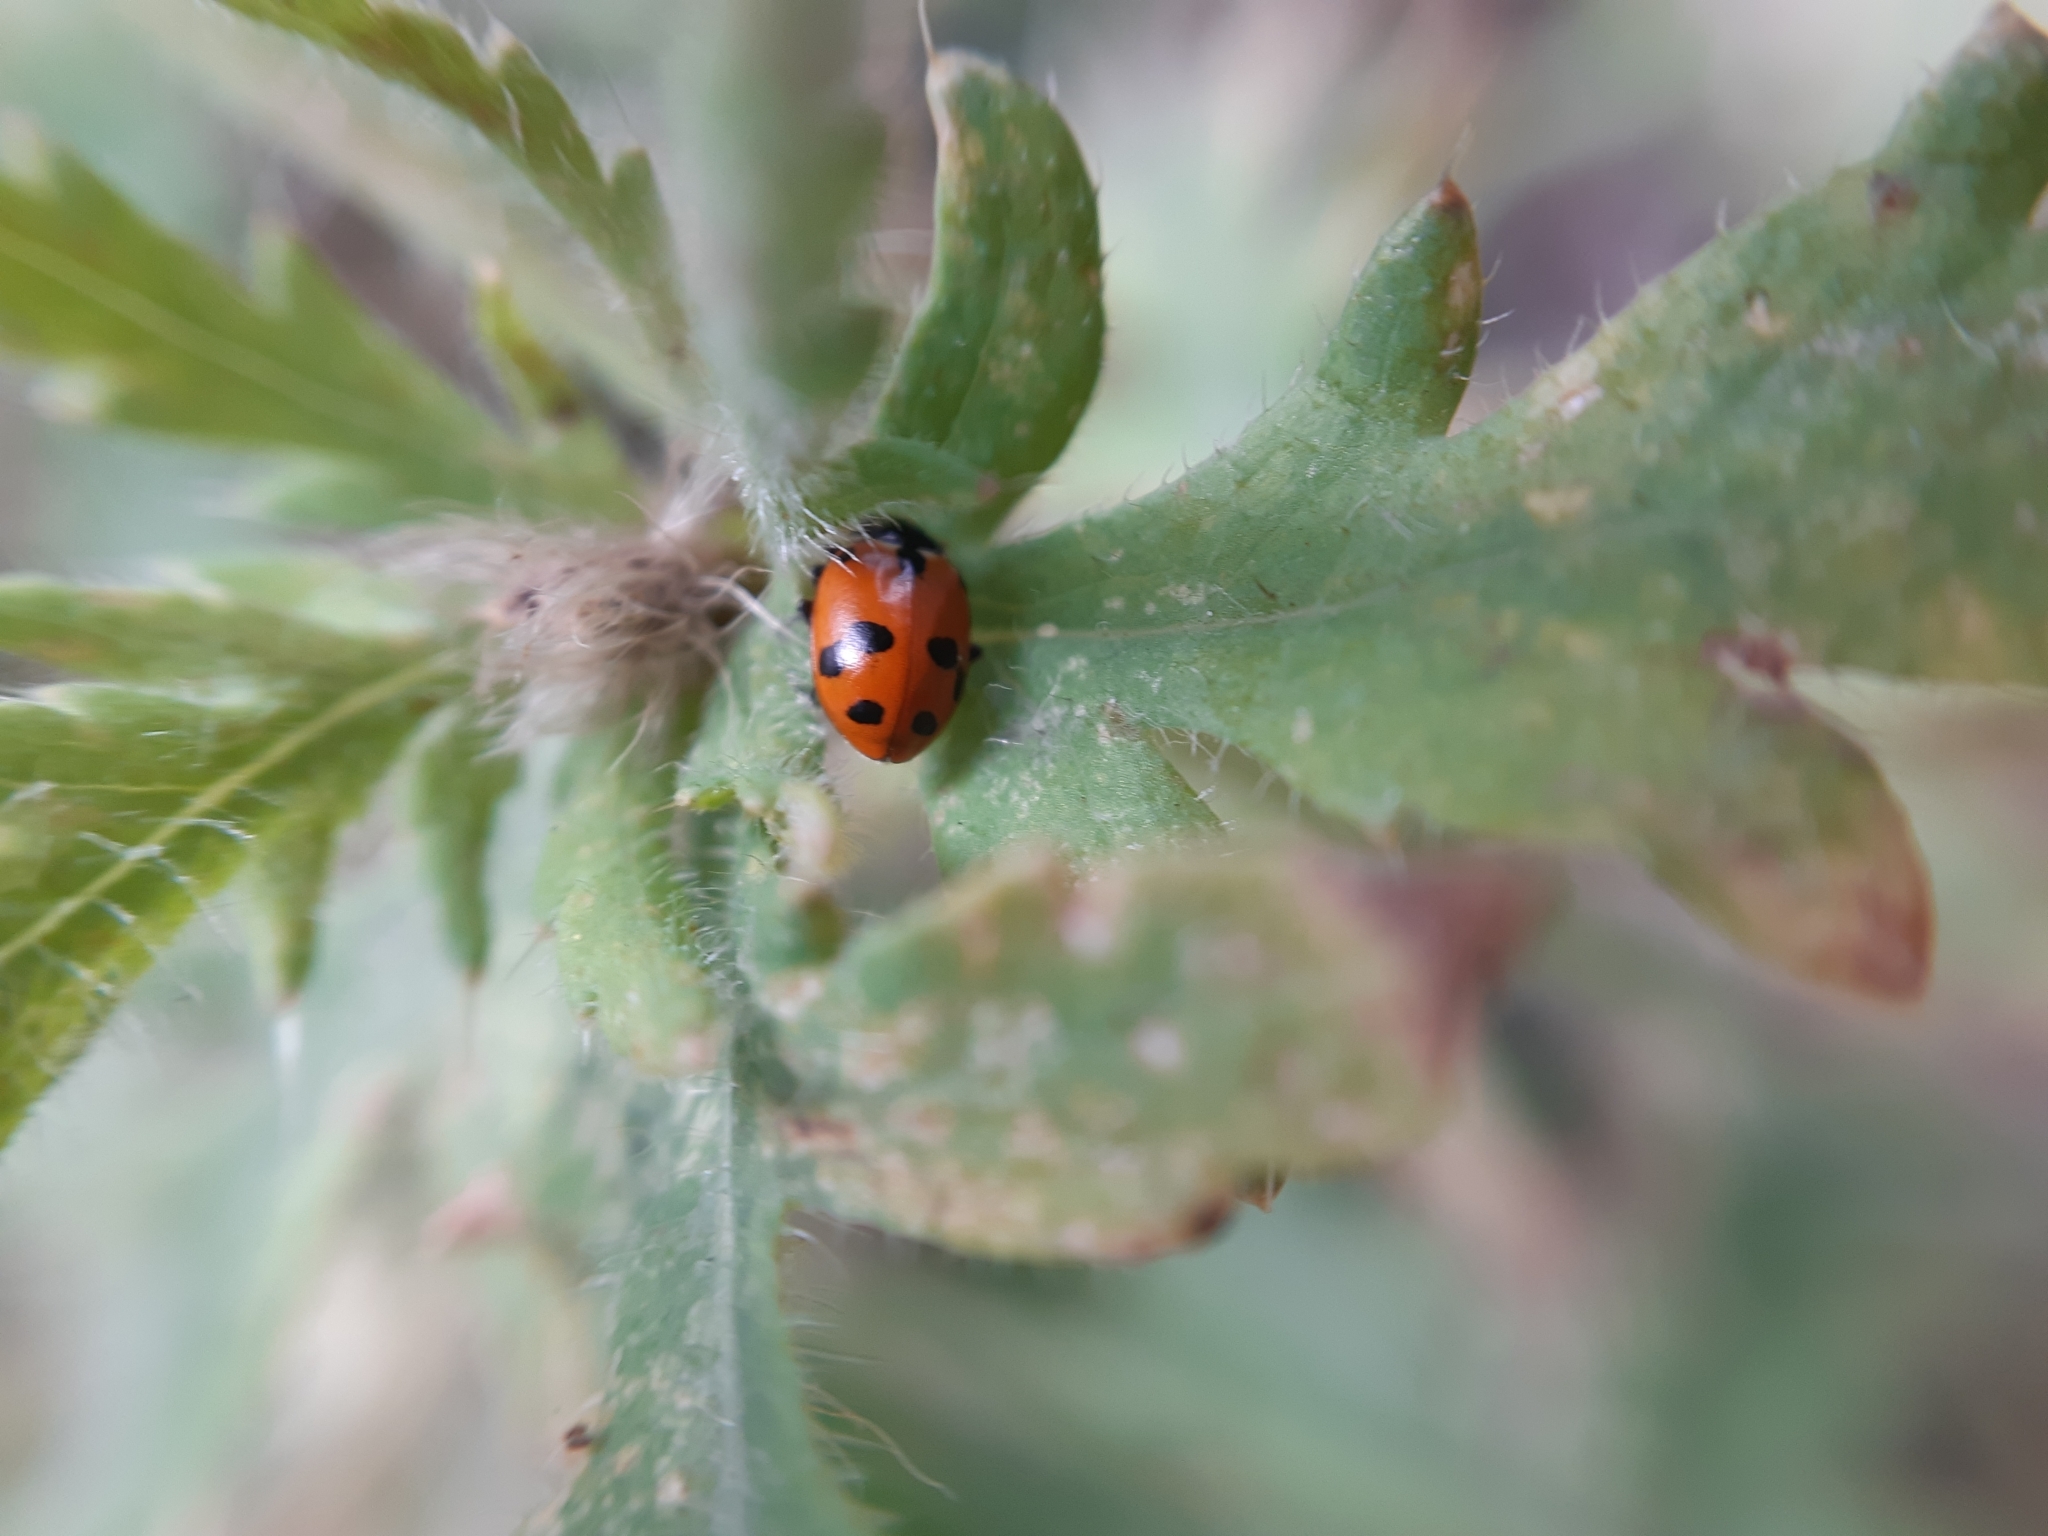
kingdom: Animalia
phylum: Arthropoda
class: Insecta
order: Coleoptera
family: Coccinellidae
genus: Hippodamia
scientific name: Hippodamia variegata
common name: Ladybird beetle
